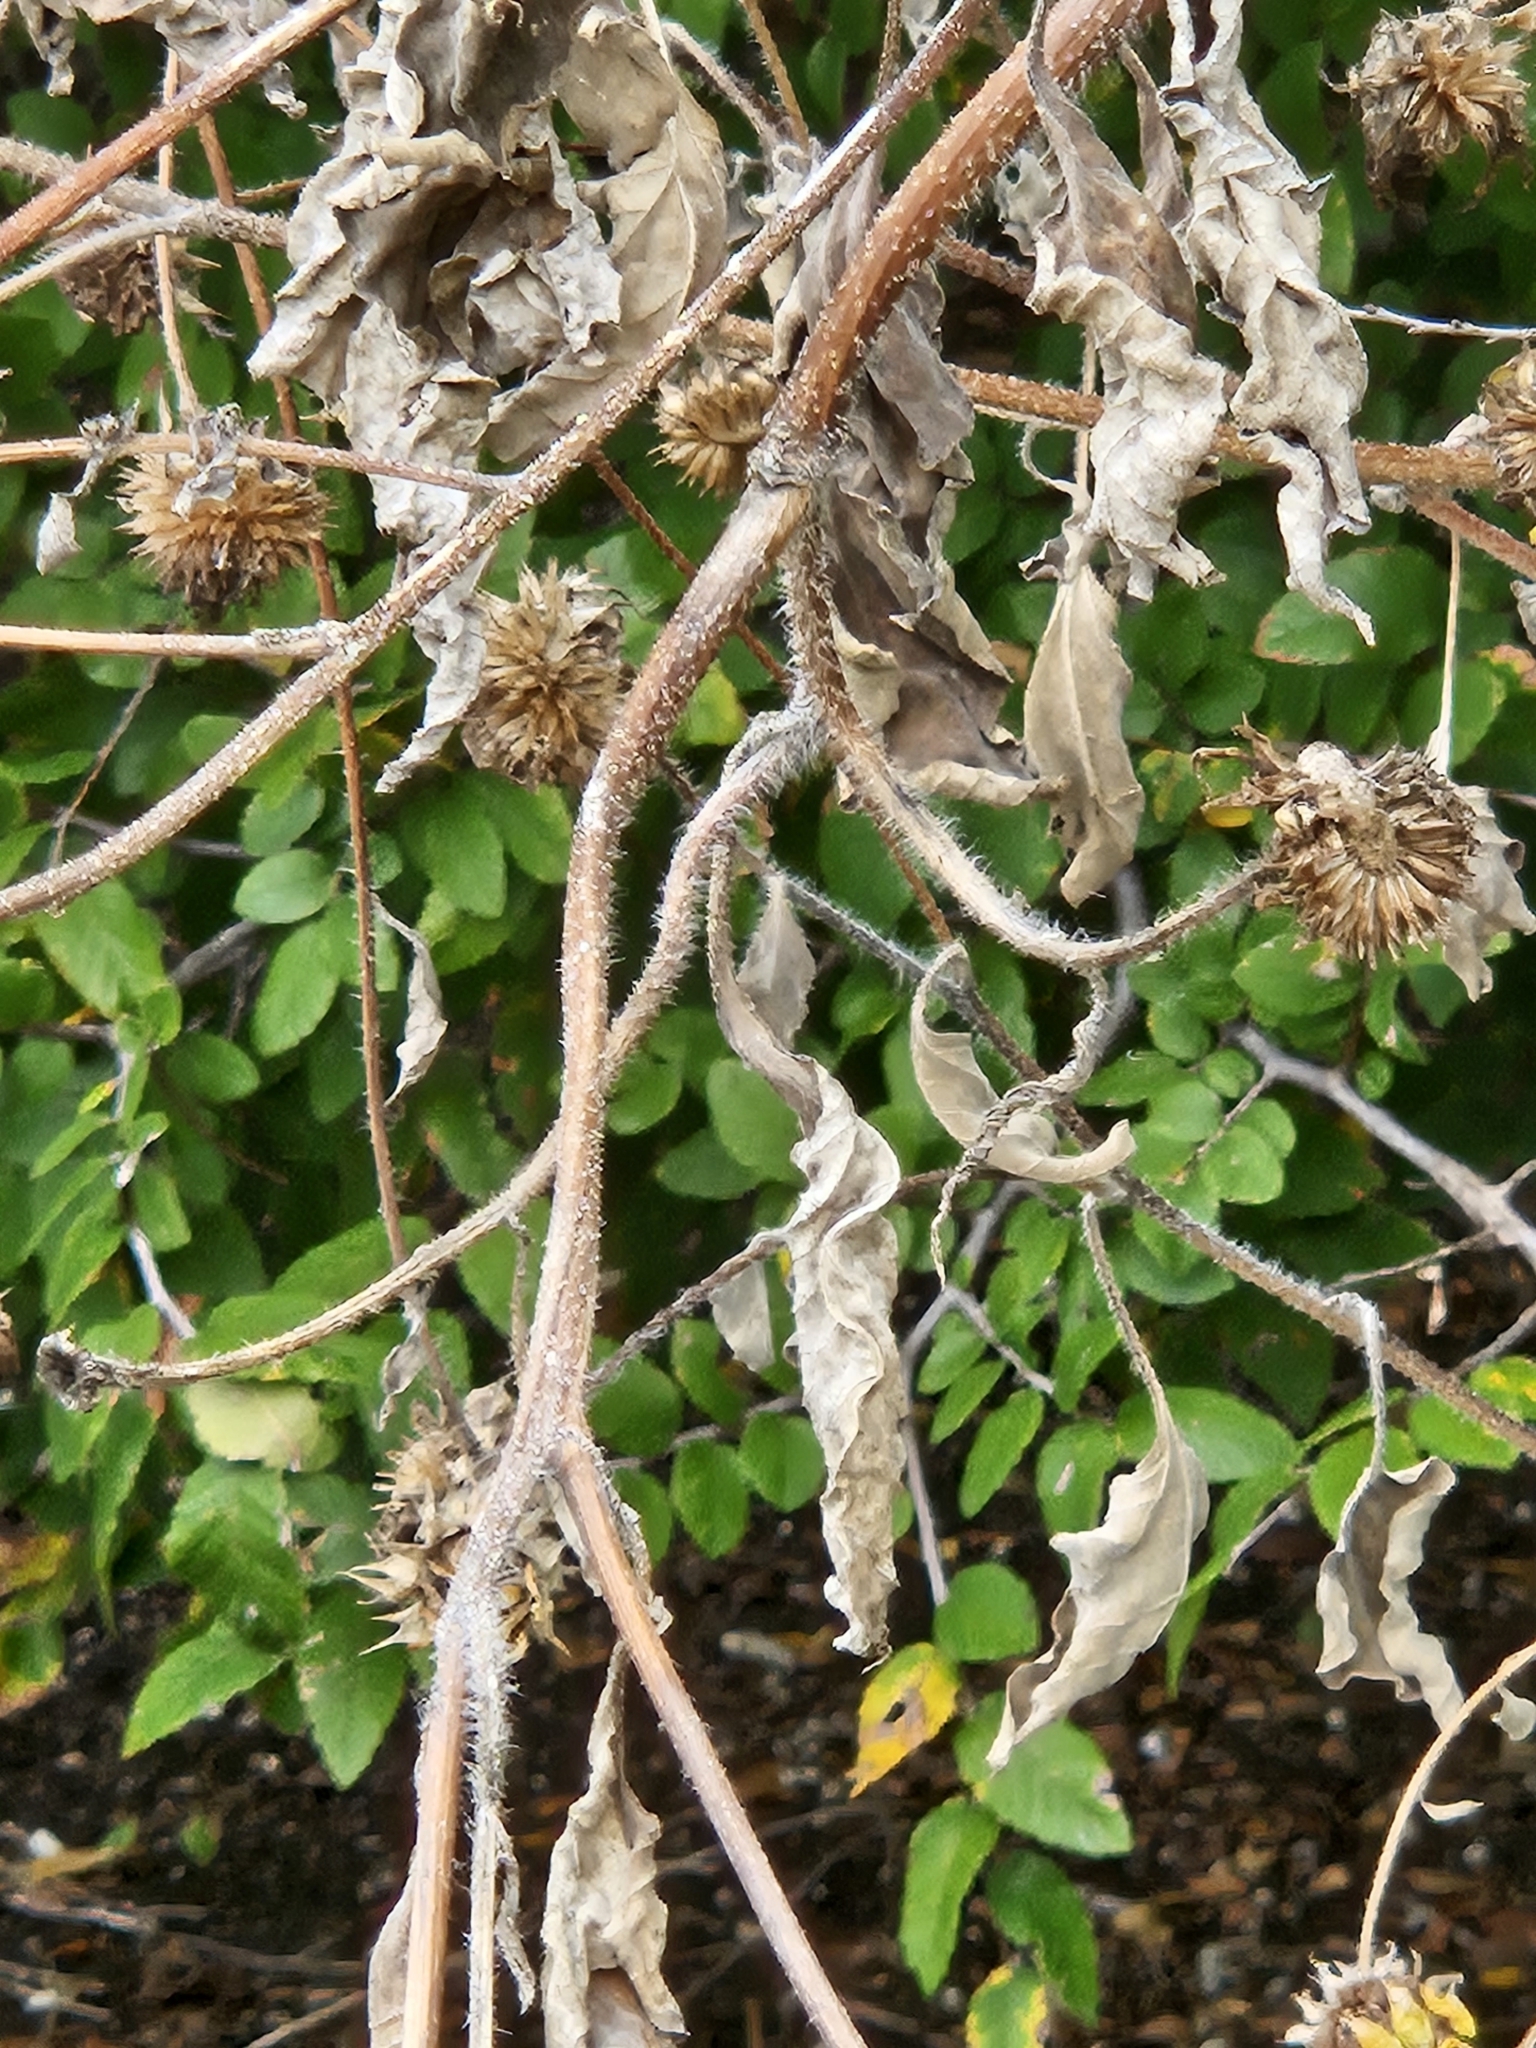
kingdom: Plantae
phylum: Tracheophyta
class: Magnoliopsida
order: Asterales
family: Asteraceae
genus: Helianthus
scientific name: Helianthus annuus
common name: Sunflower
